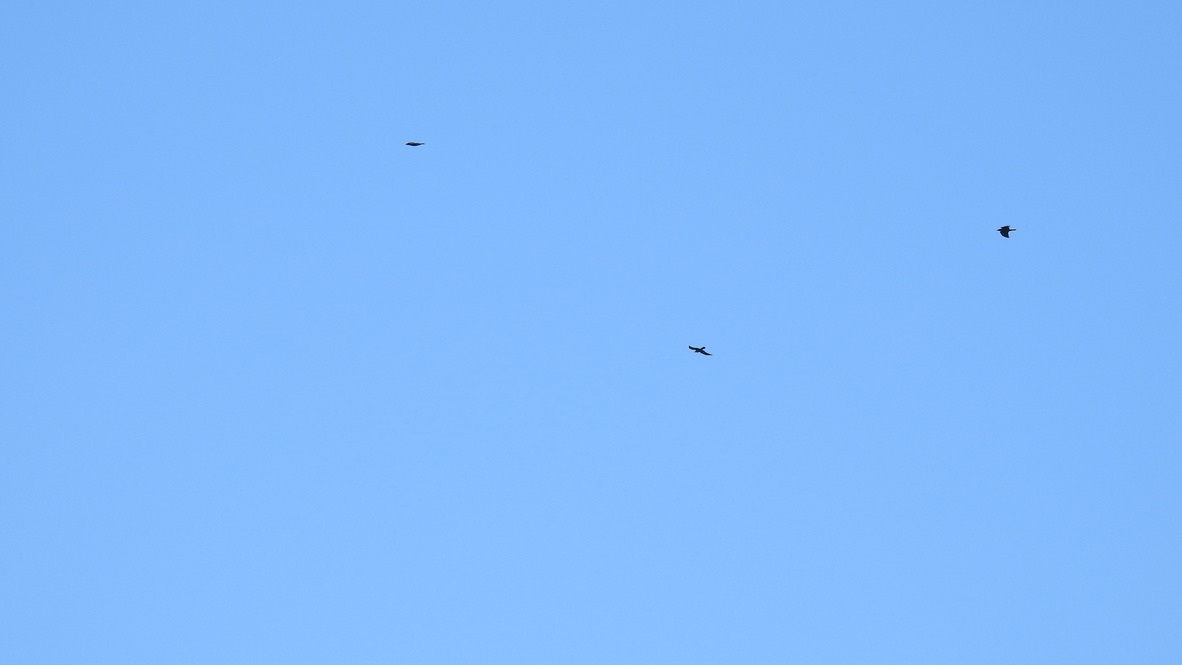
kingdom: Animalia
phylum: Chordata
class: Aves
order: Accipitriformes
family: Accipitridae
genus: Aquila
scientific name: Aquila chrysaetos
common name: Golden eagle
